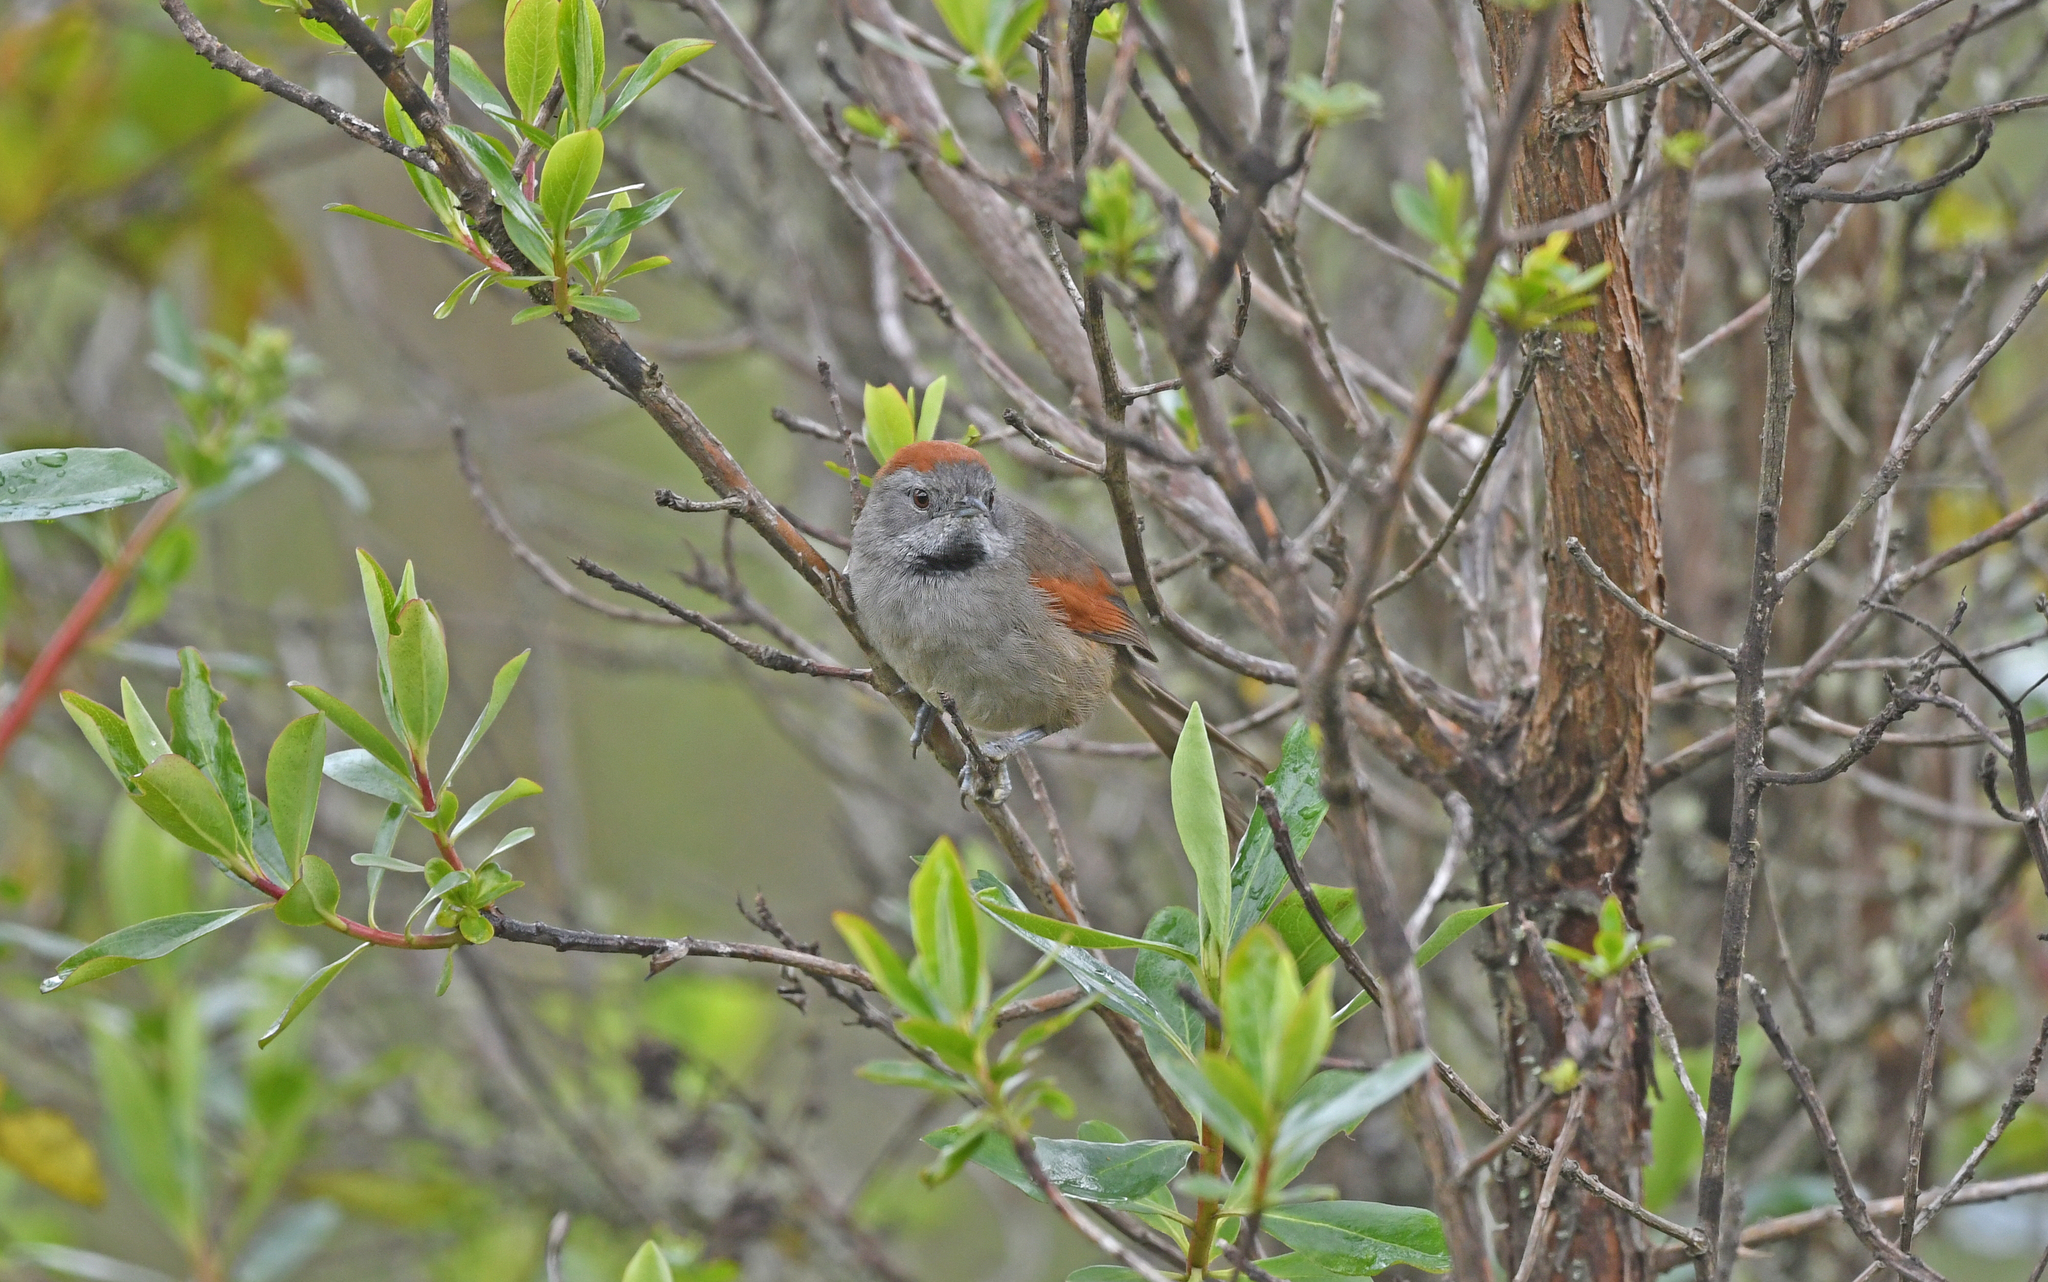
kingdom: Animalia
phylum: Chordata
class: Aves
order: Passeriformes
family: Furnariidae
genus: Synallaxis
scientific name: Synallaxis subpudica
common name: Silvery-throated spinetail
